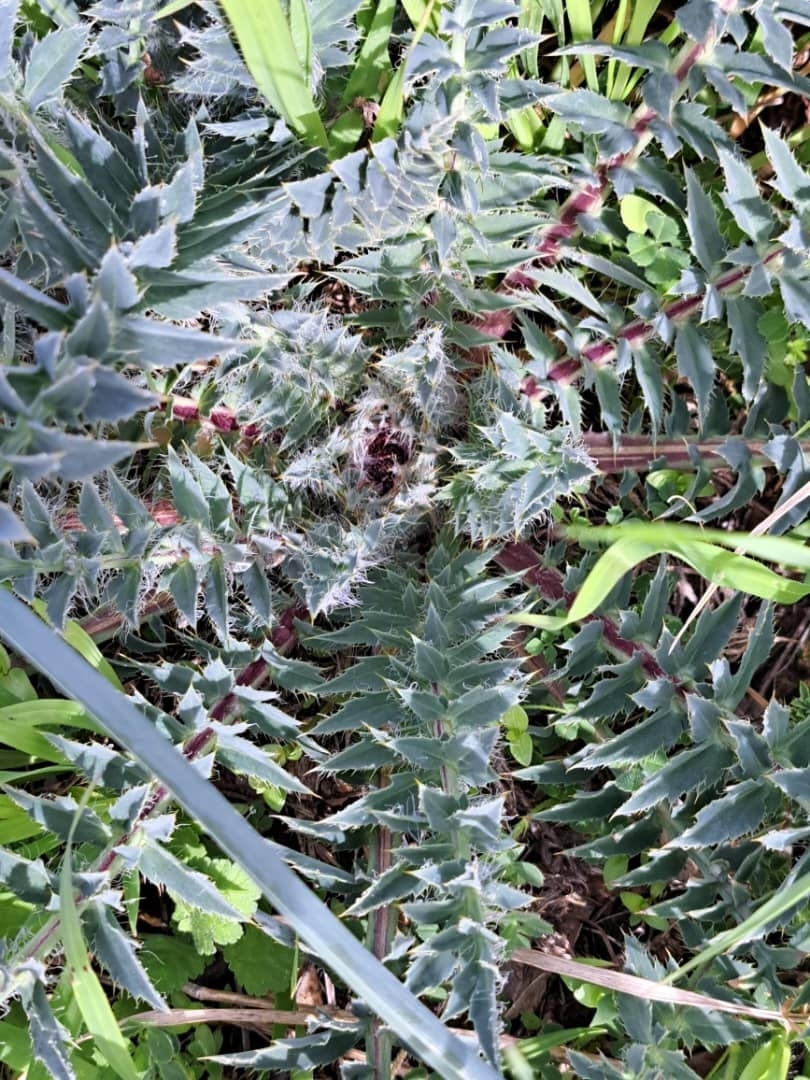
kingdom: Plantae
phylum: Tracheophyta
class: Magnoliopsida
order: Asterales
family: Asteraceae
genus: Carduncellus
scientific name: Carduncellus
